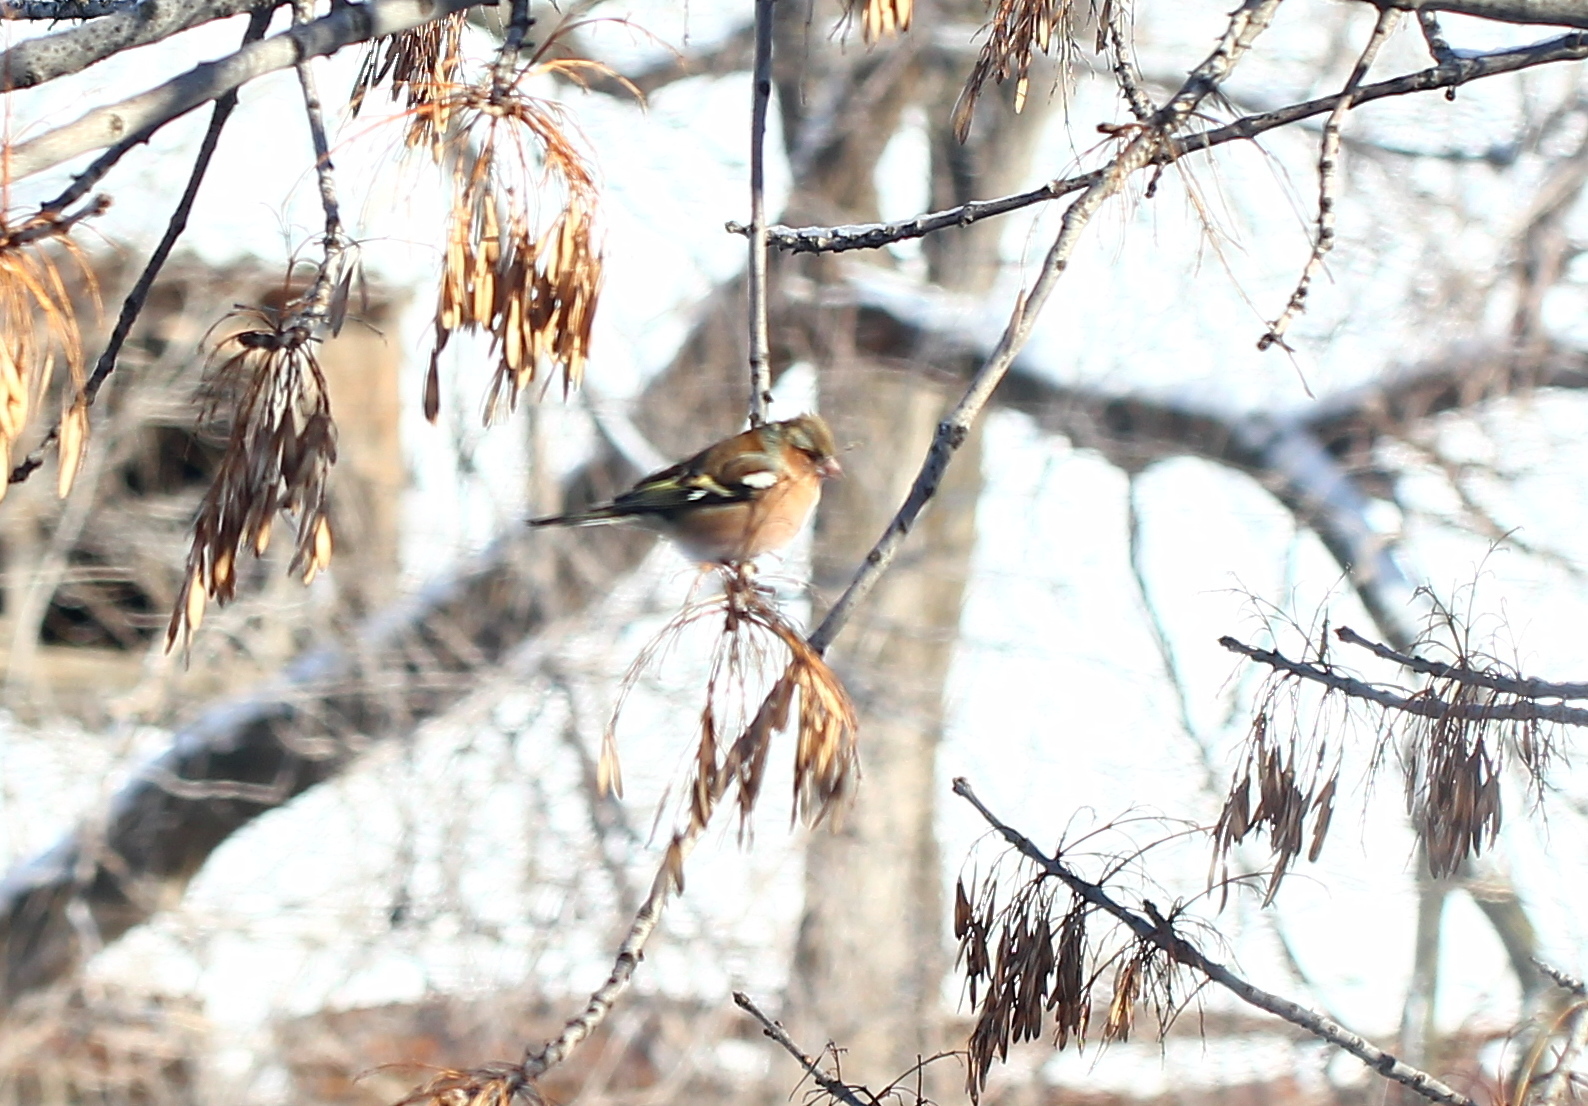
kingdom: Animalia
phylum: Chordata
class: Aves
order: Passeriformes
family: Fringillidae
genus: Fringilla
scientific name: Fringilla coelebs
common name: Common chaffinch
